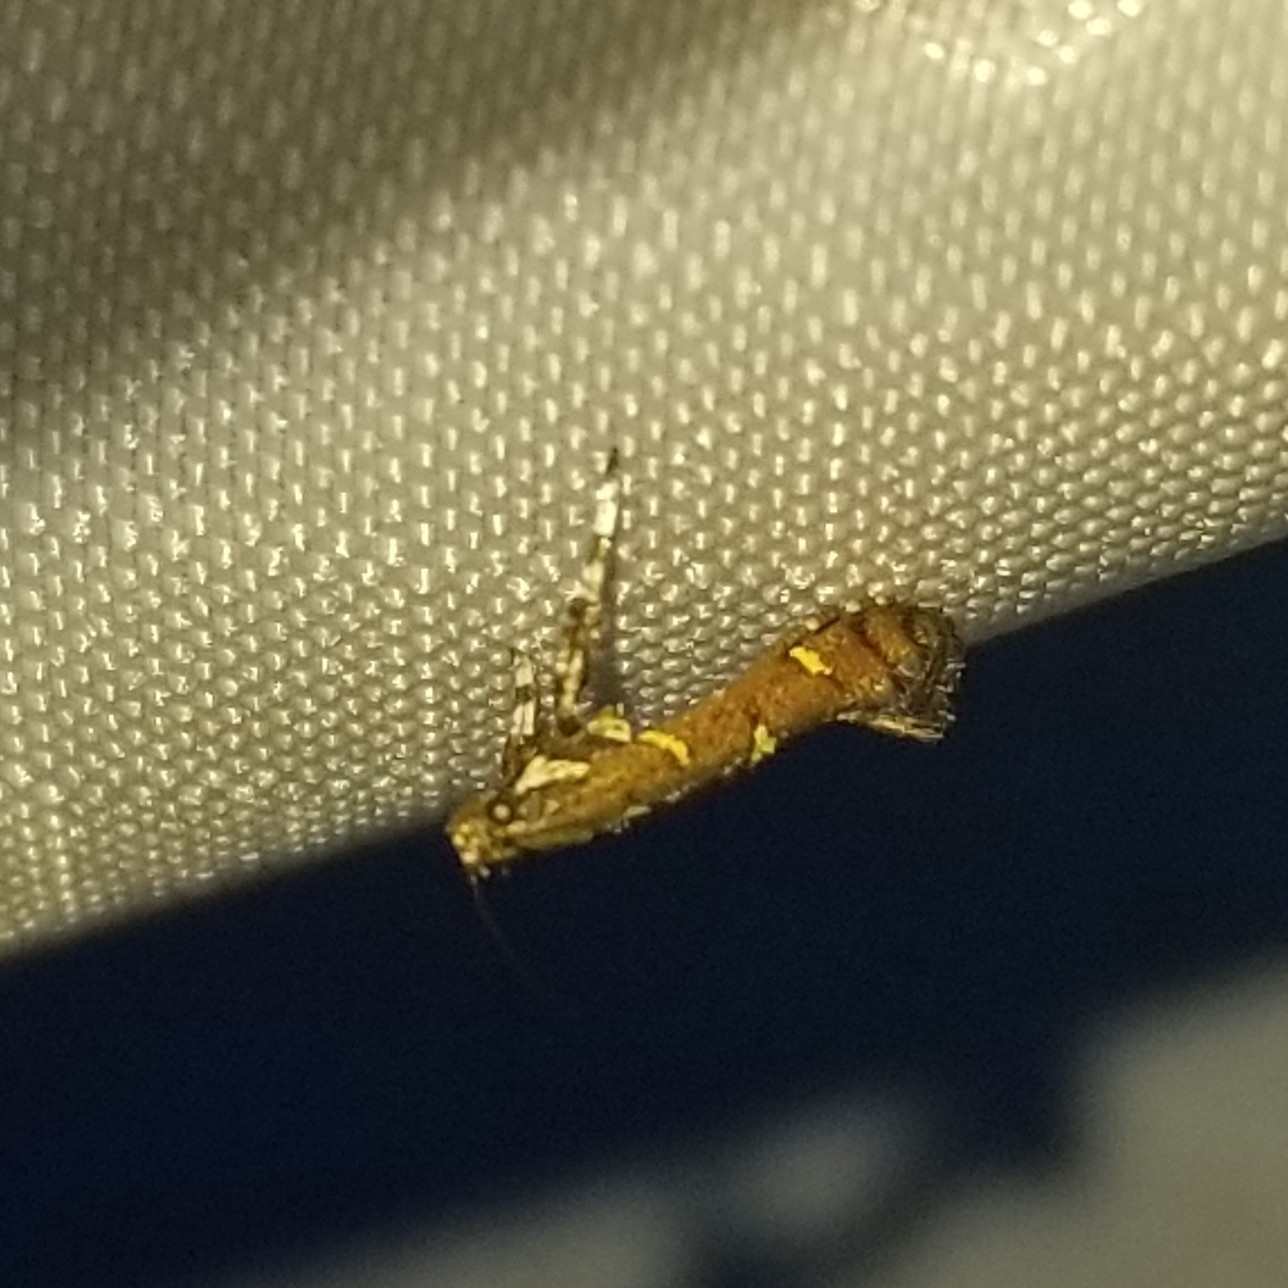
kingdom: Animalia
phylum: Arthropoda
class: Insecta
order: Lepidoptera
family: Gracillariidae
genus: Caloptilia
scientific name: Caloptilia triadicae
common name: Tallow leaf roller
